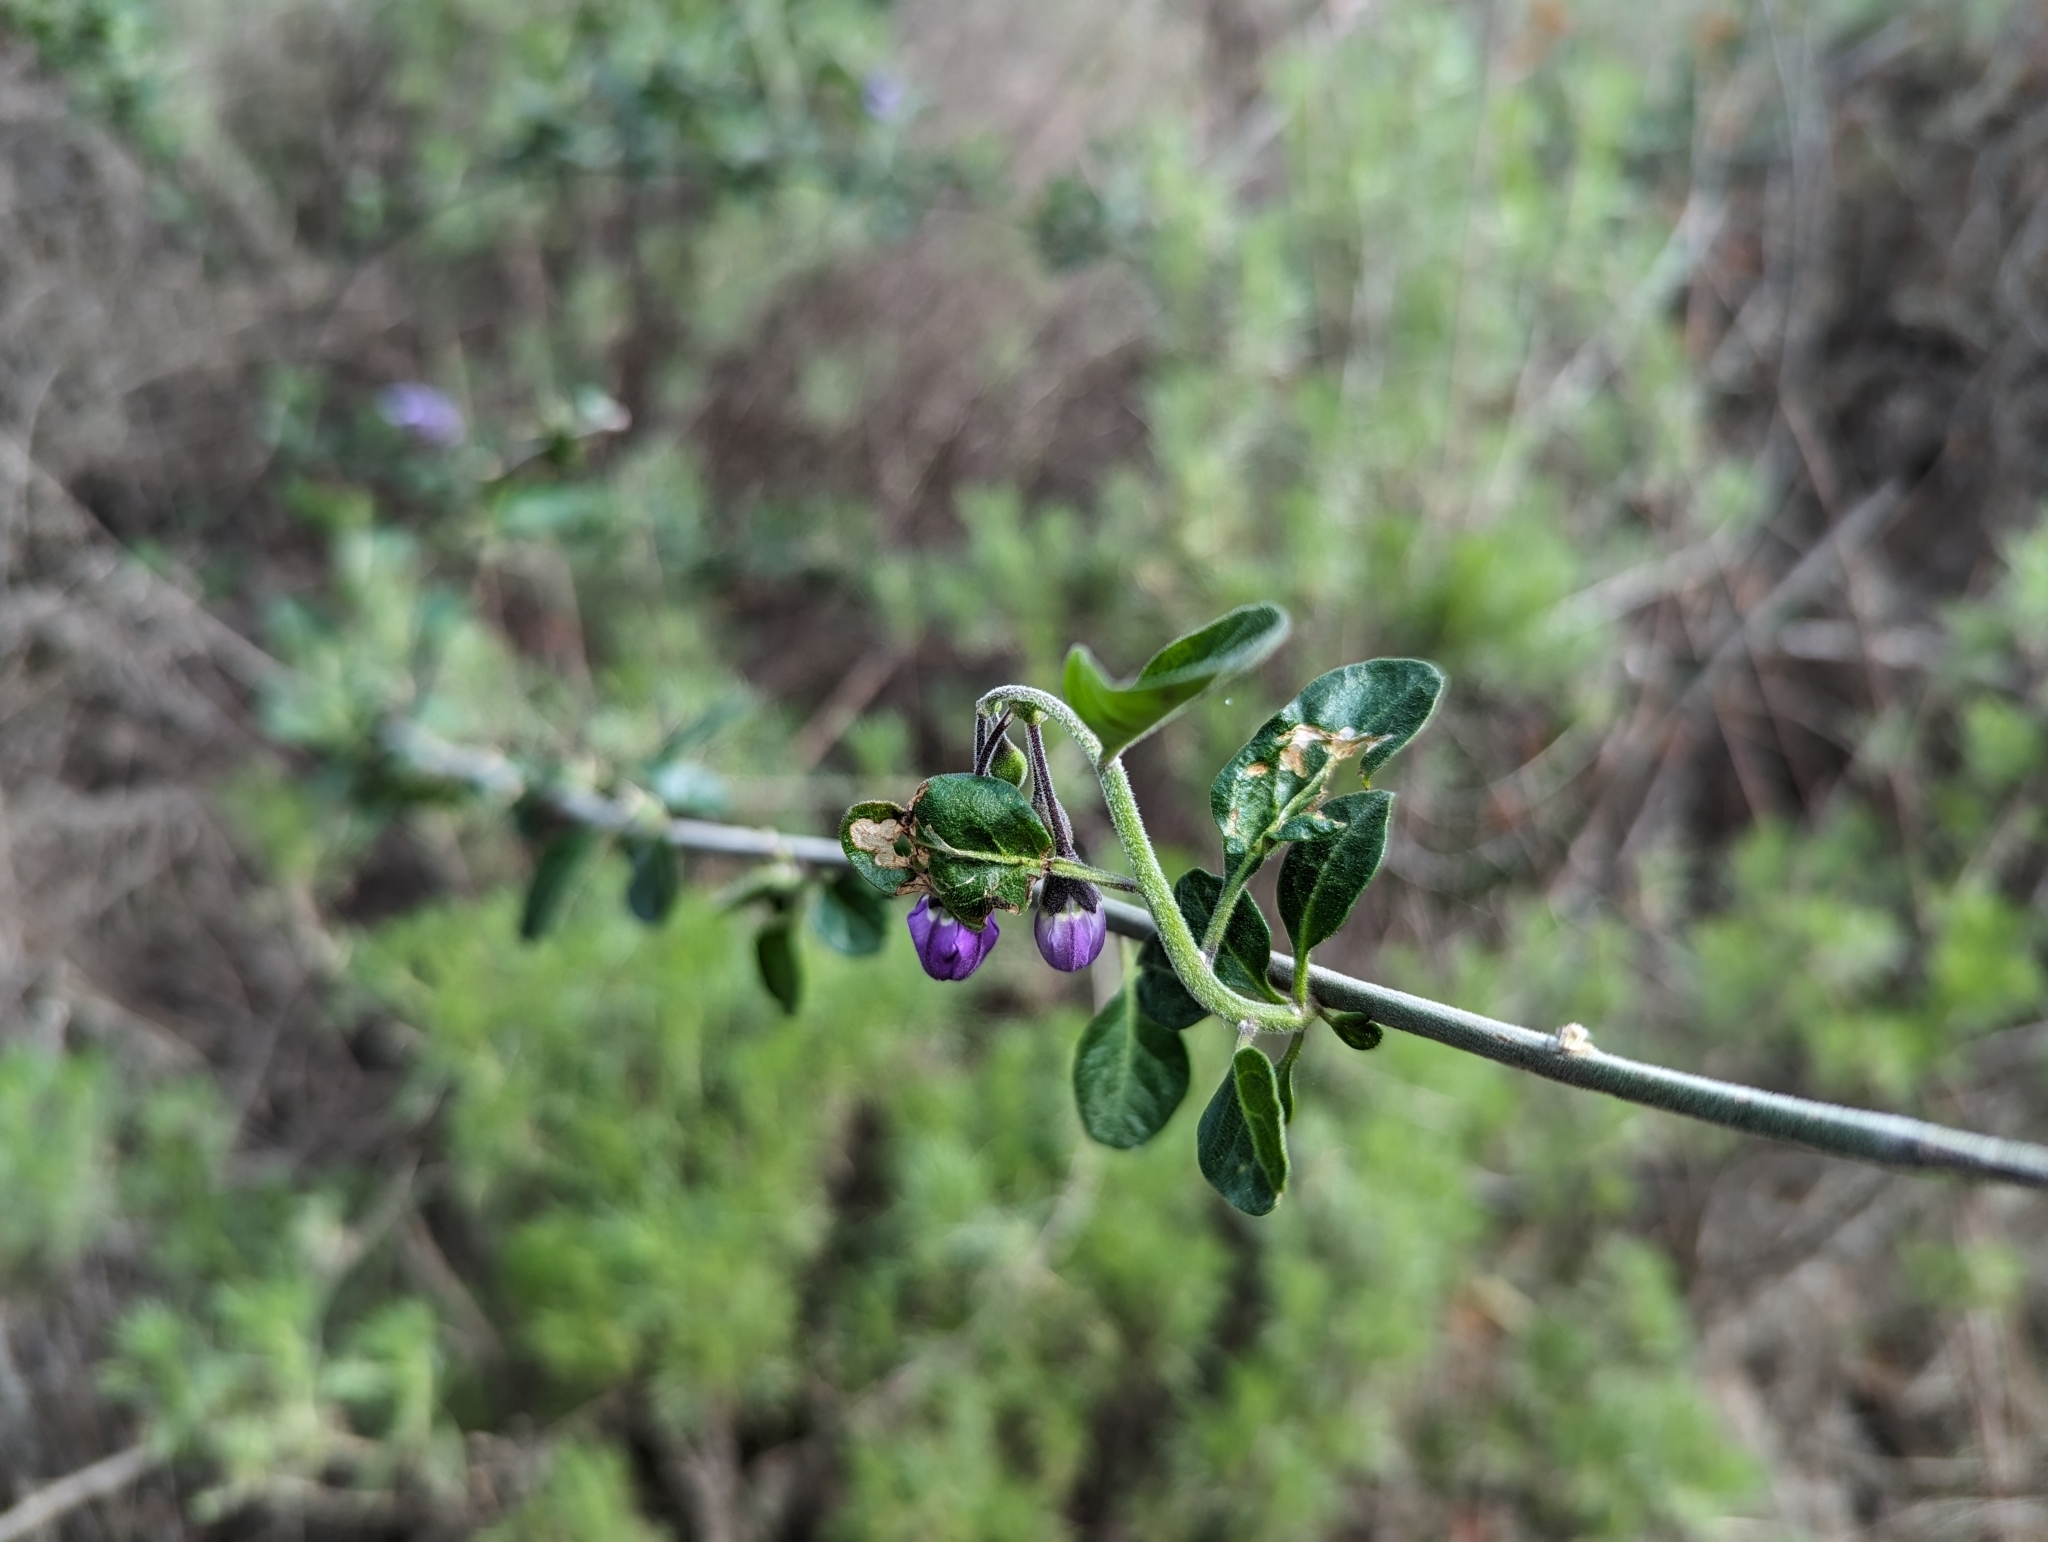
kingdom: Plantae
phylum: Tracheophyta
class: Magnoliopsida
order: Solanales
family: Solanaceae
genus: Solanum
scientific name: Solanum umbelliferum
